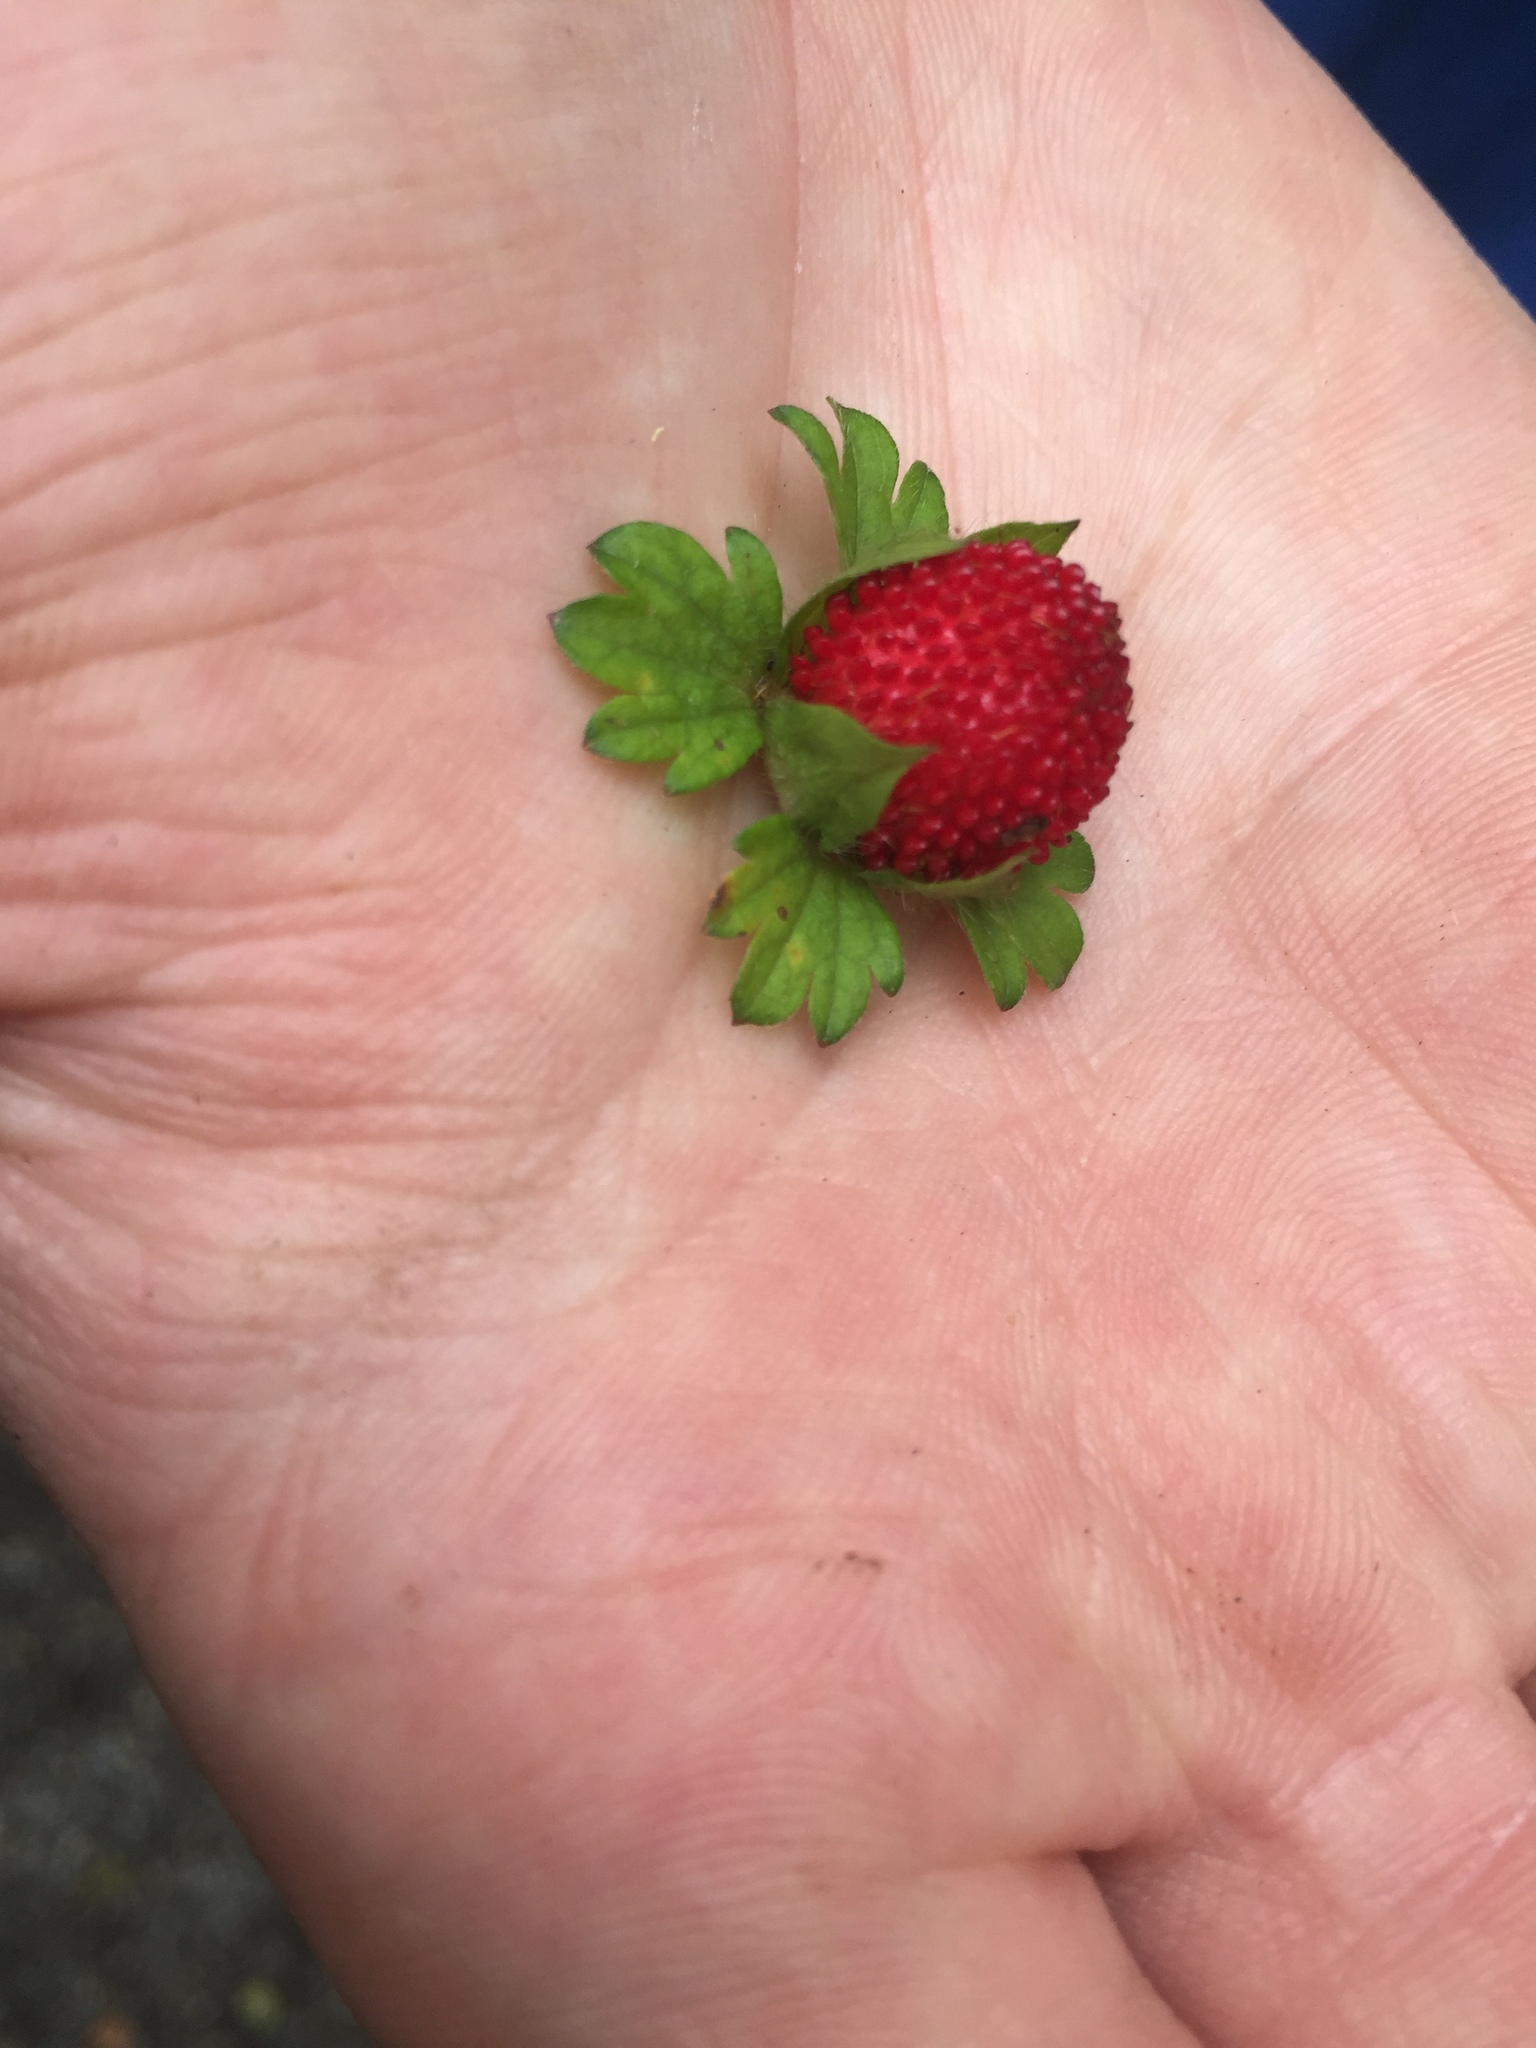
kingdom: Plantae
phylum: Tracheophyta
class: Magnoliopsida
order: Rosales
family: Rosaceae
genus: Potentilla
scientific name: Potentilla indica
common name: Yellow-flowered strawberry
